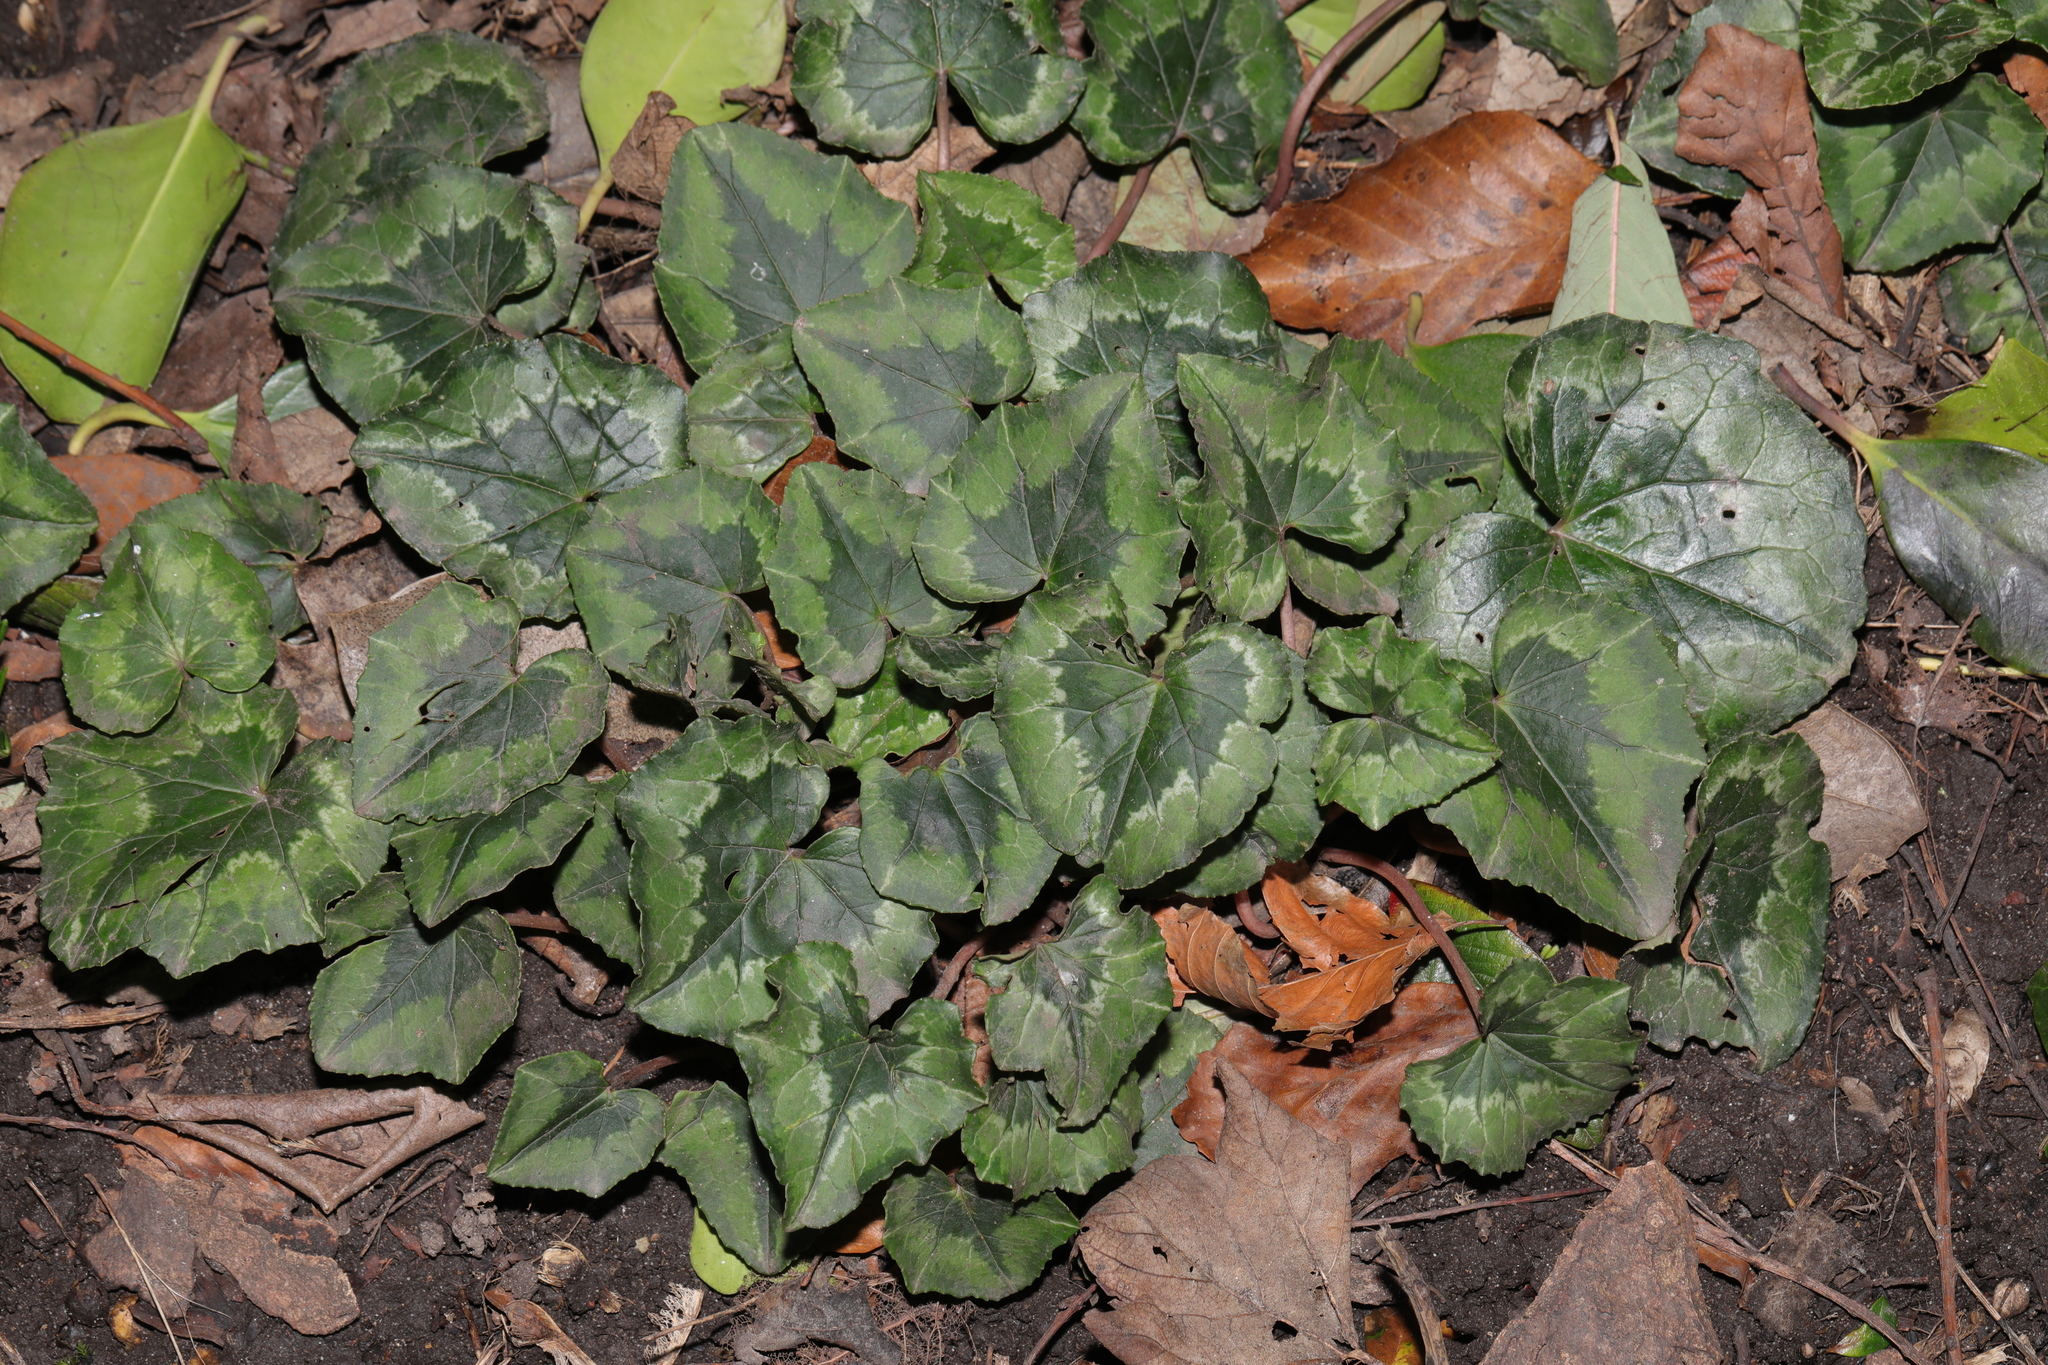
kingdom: Plantae
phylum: Tracheophyta
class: Magnoliopsida
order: Ericales
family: Primulaceae
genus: Cyclamen
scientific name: Cyclamen hederifolium
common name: Sowbread
